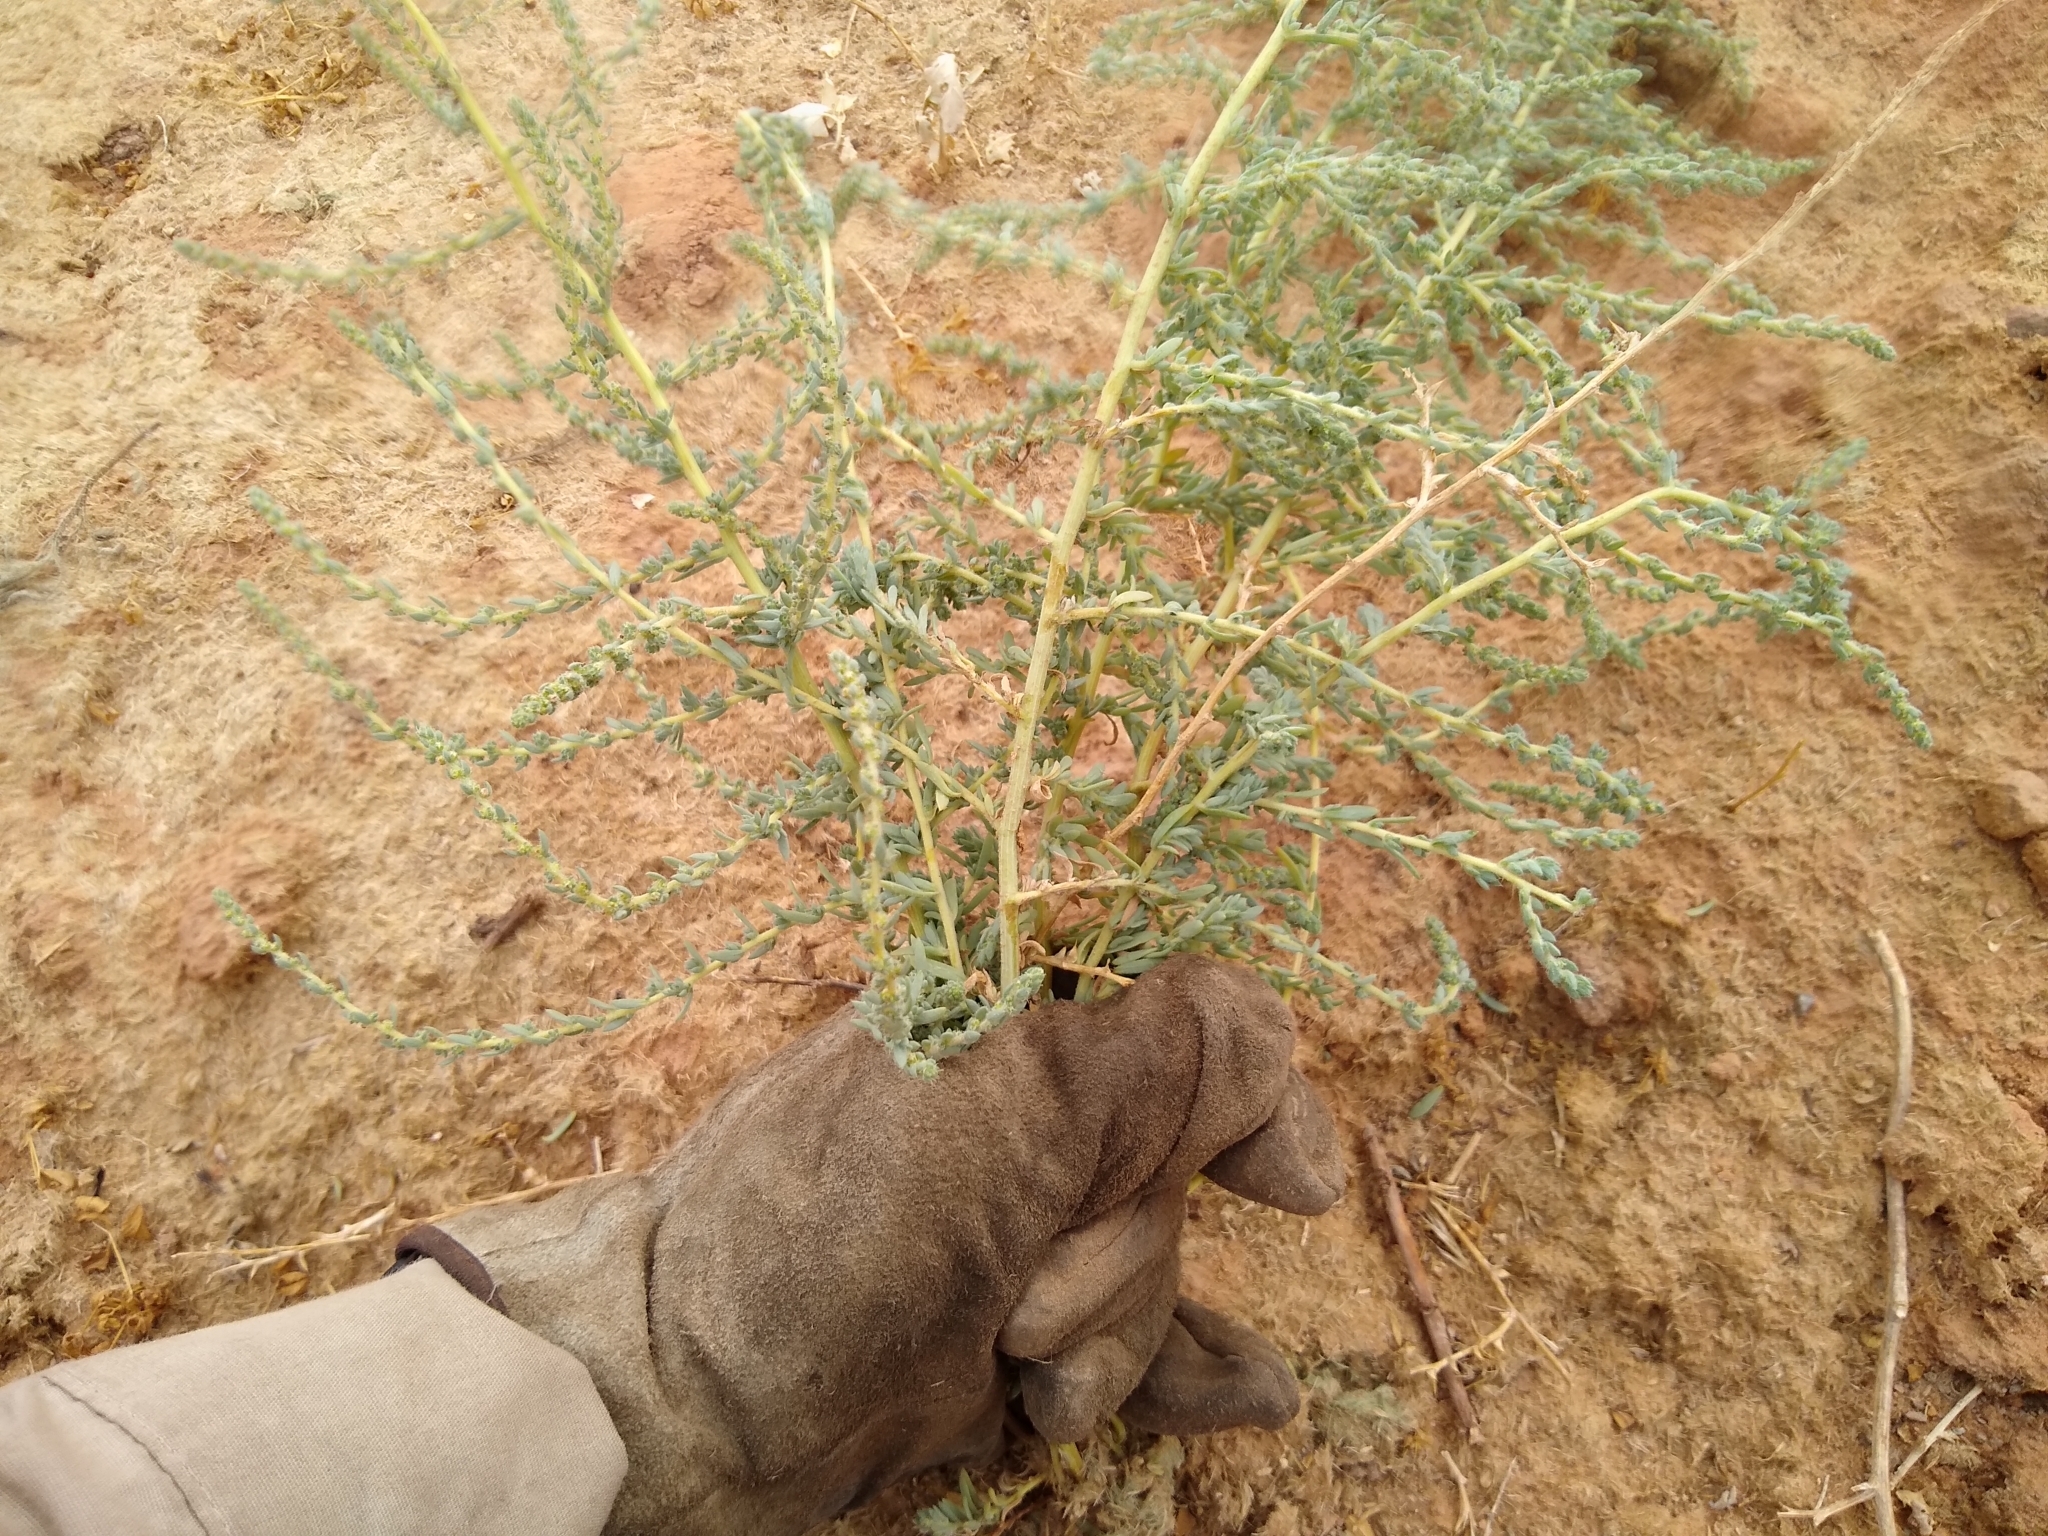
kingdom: Plantae
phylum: Tracheophyta
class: Magnoliopsida
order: Caryophyllales
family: Amaranthaceae
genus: Bassia
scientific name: Bassia scoparia
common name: Belvedere
